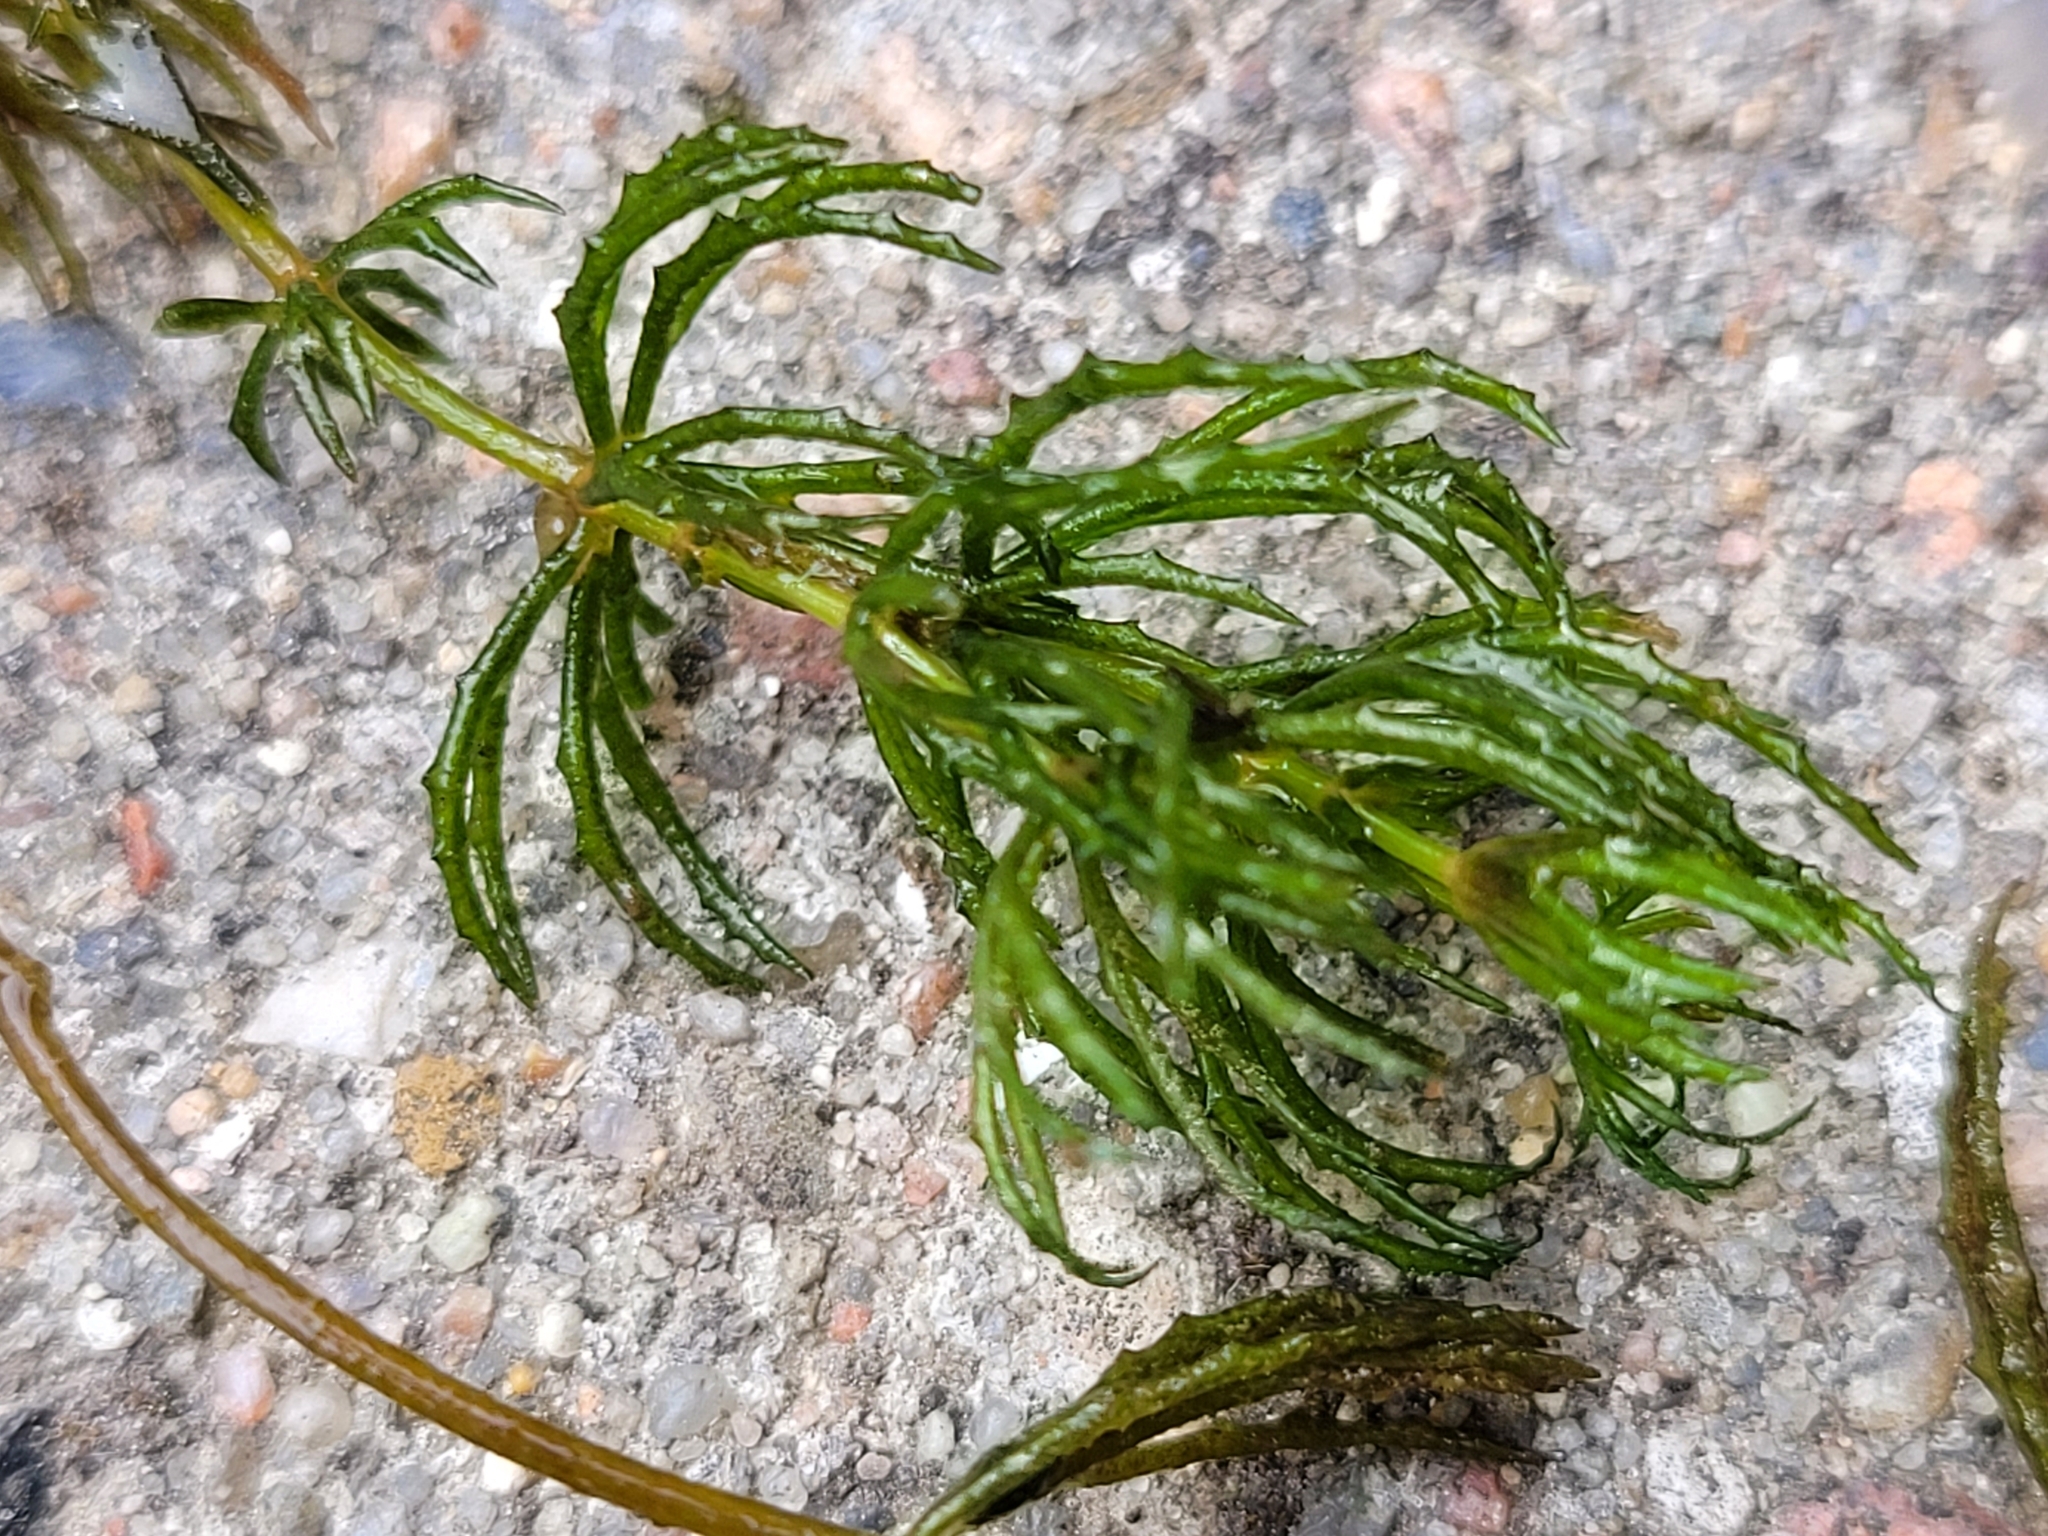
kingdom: Plantae
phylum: Tracheophyta
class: Magnoliopsida
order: Ceratophyllales
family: Ceratophyllaceae
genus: Ceratophyllum
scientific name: Ceratophyllum demersum
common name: Rigid hornwort
